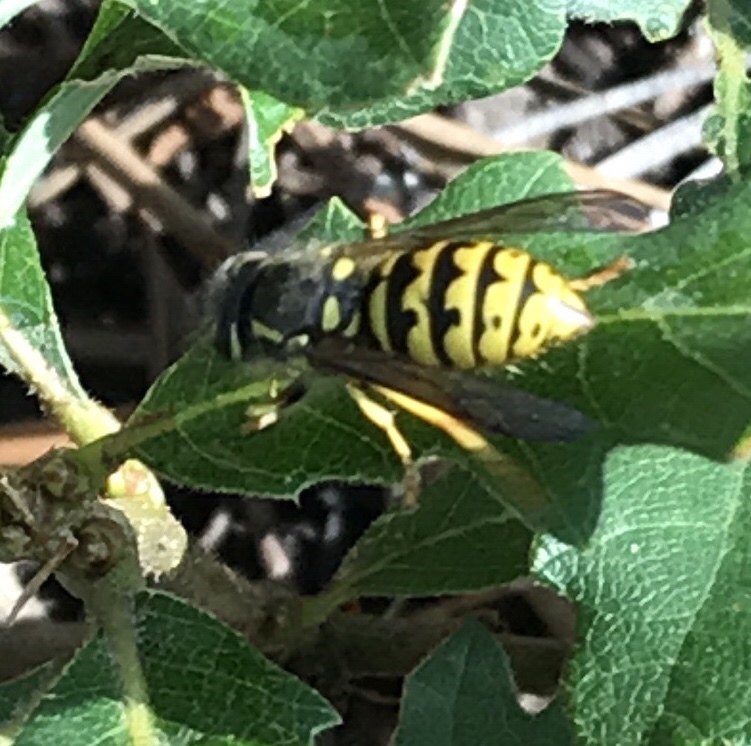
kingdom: Animalia
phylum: Arthropoda
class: Insecta
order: Hymenoptera
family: Vespidae
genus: Dolichovespula
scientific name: Dolichovespula arenaria
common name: Aerial yellowjacket
